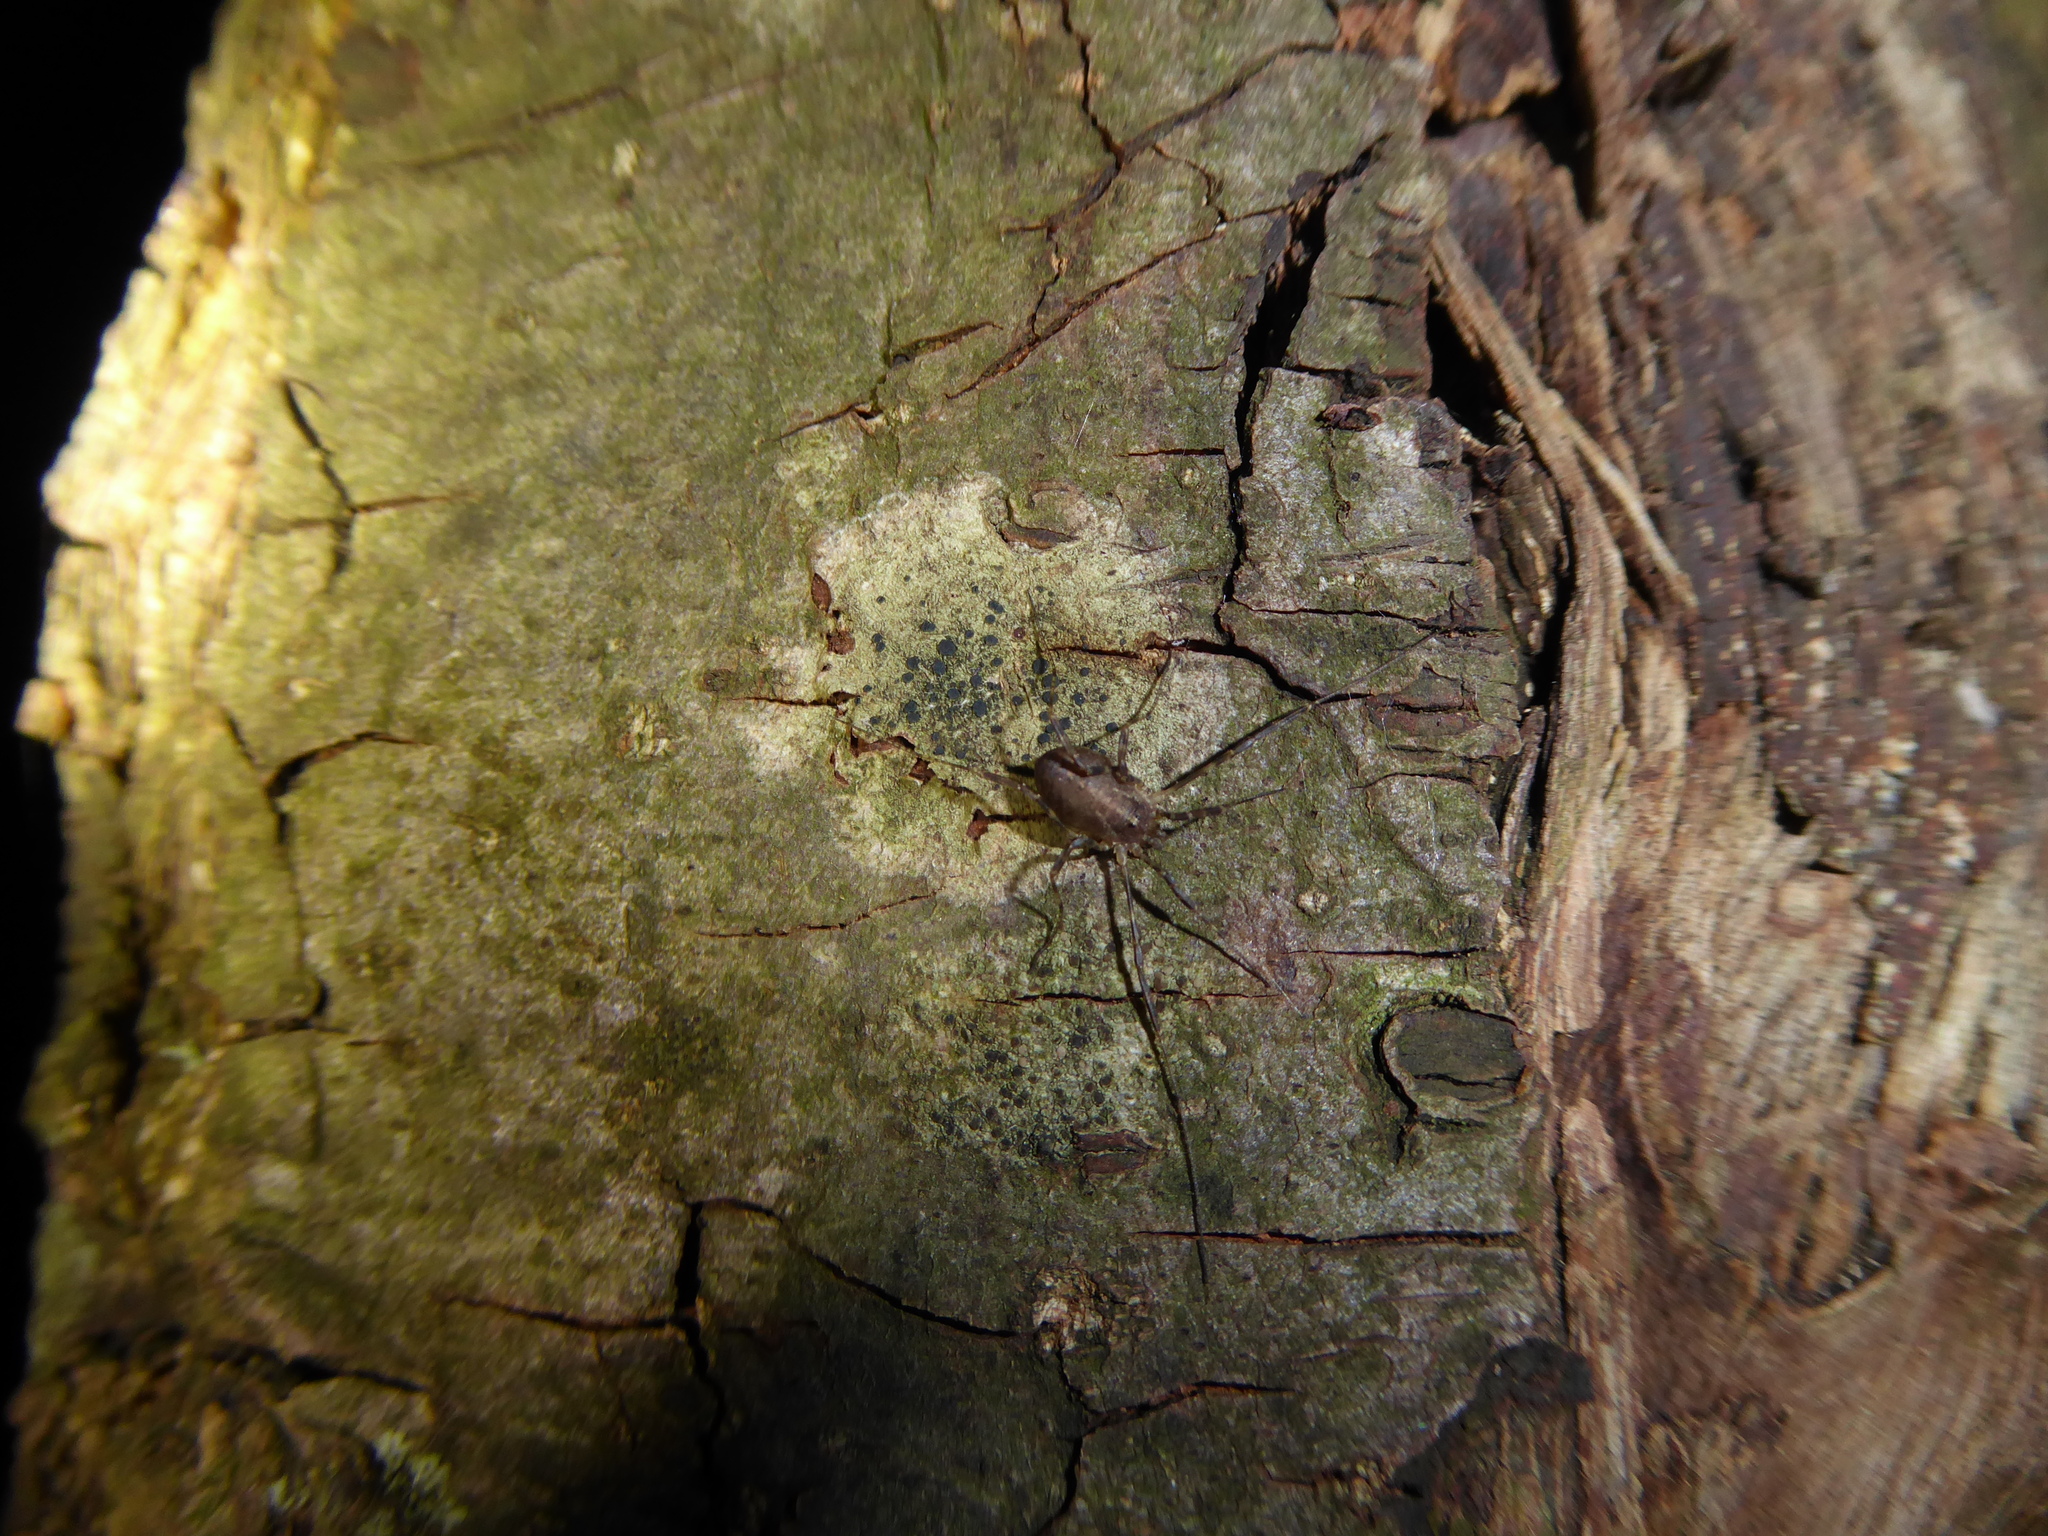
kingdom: Animalia
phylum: Arthropoda
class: Arachnida
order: Opiliones
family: Phalangiidae
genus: Paroligolophus
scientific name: Paroligolophus agrestis
